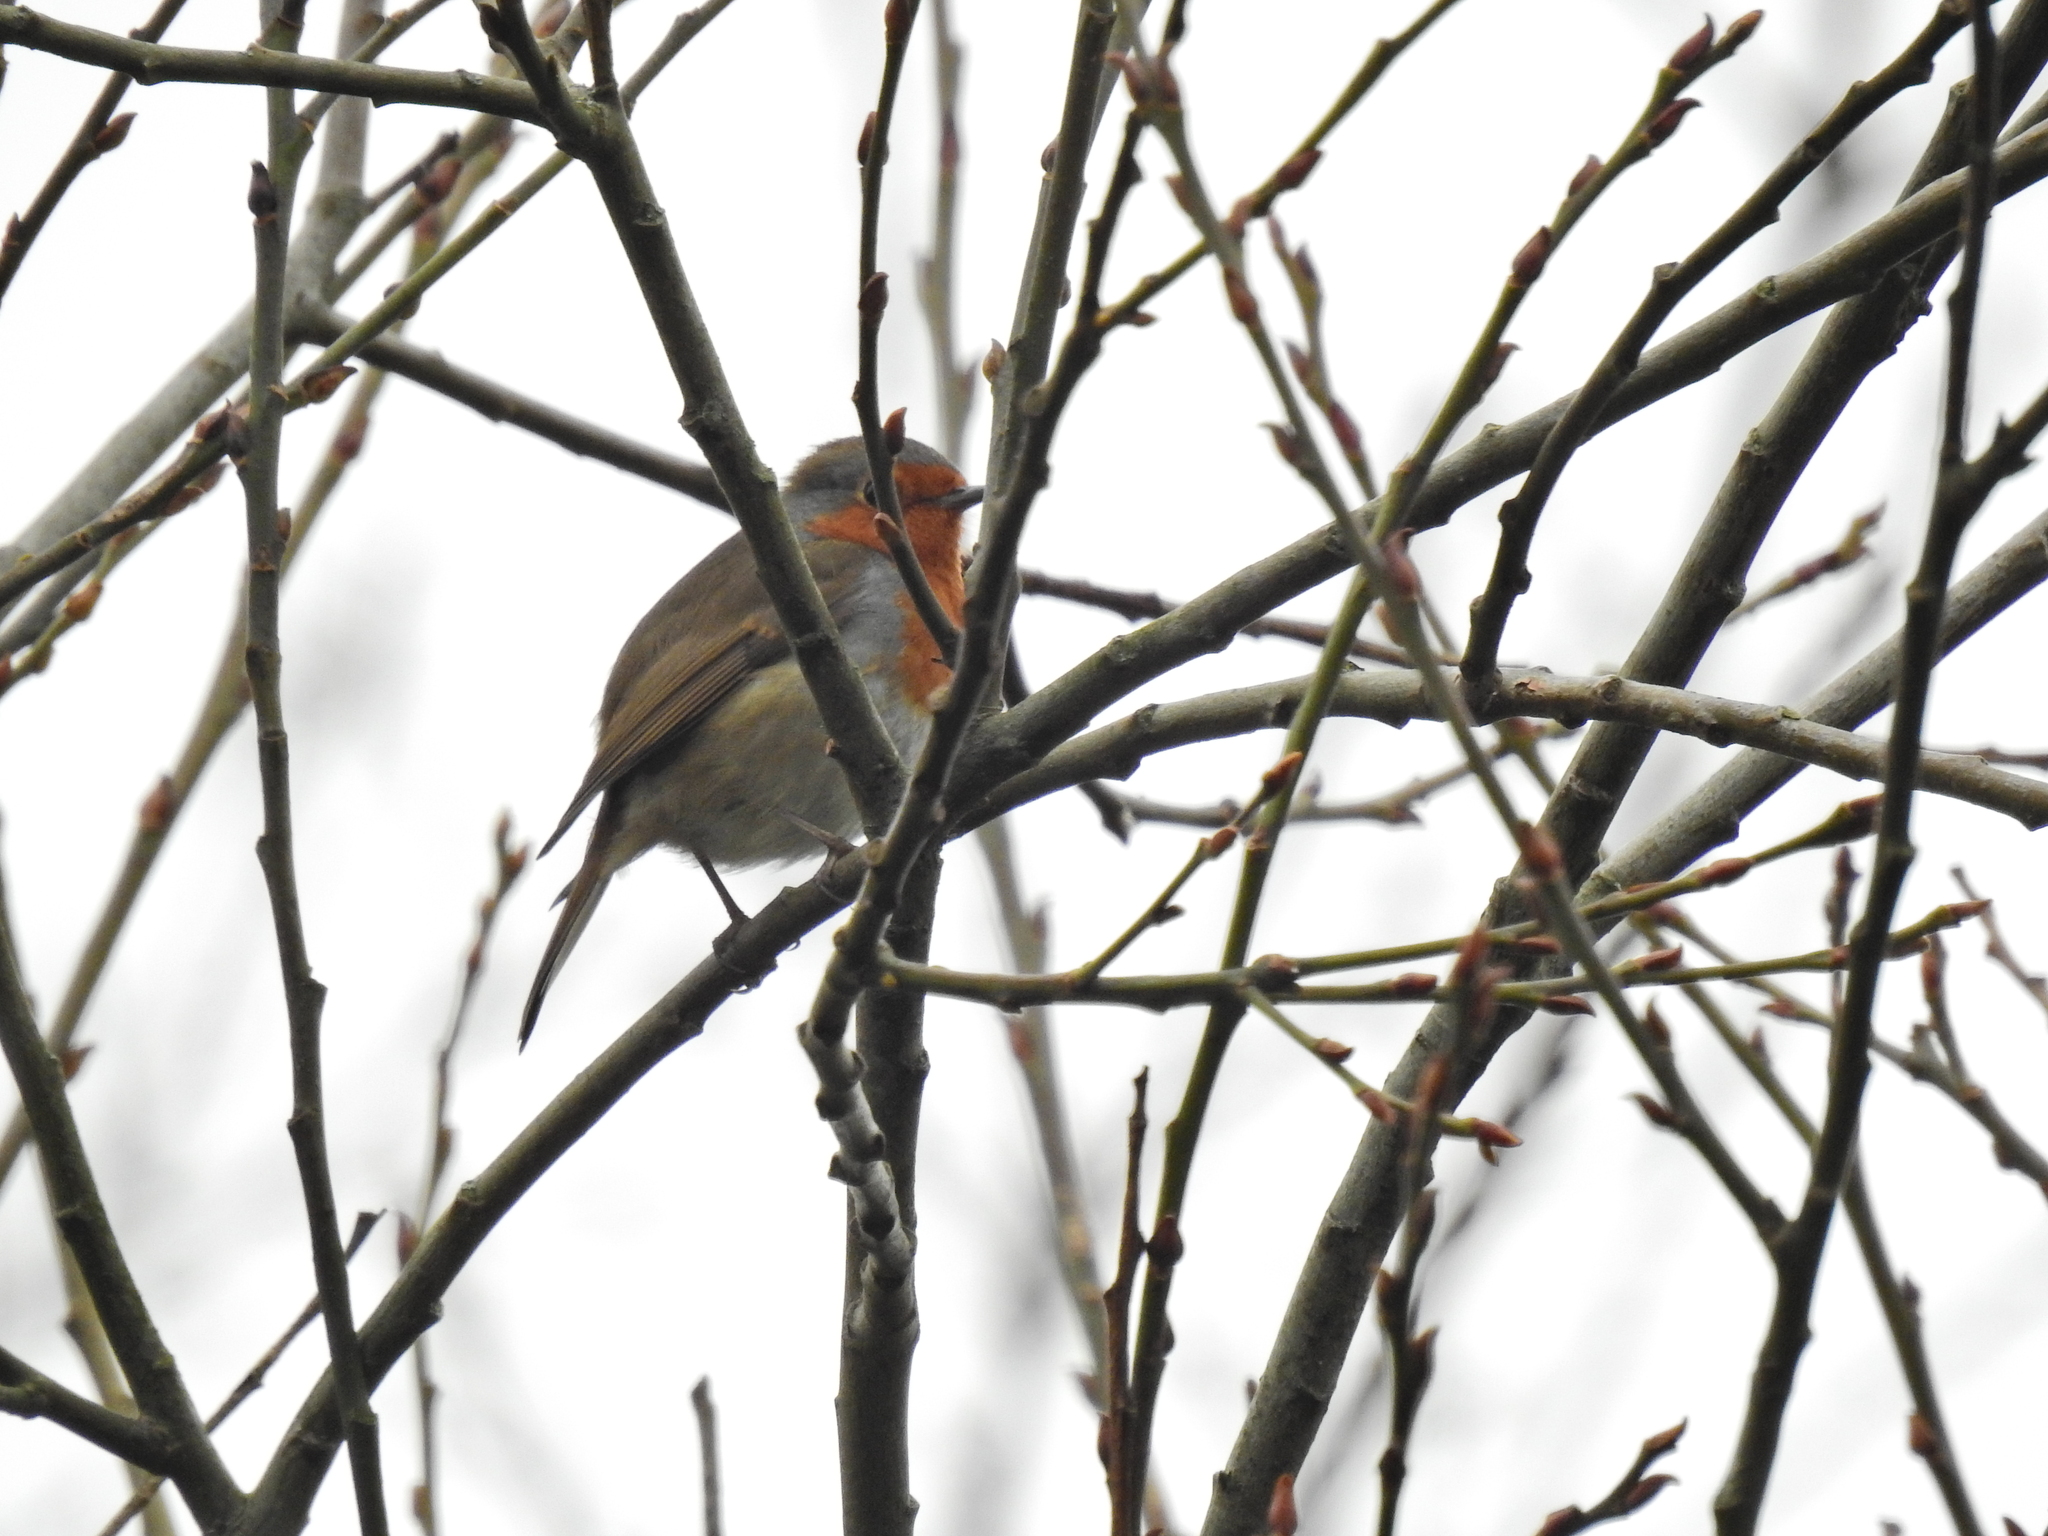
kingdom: Animalia
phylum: Chordata
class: Aves
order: Passeriformes
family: Muscicapidae
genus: Erithacus
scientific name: Erithacus rubecula
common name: European robin
